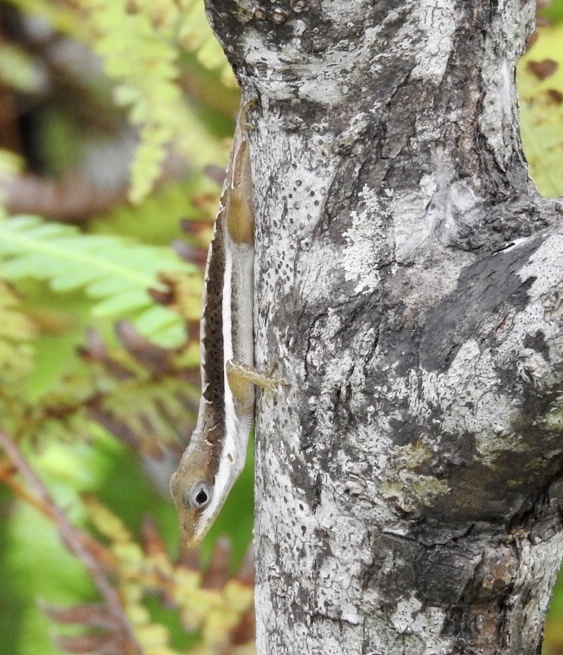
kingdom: Animalia
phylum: Chordata
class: Squamata
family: Dactyloidae
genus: Anolis
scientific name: Anolis krugi
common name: Krug's anole
